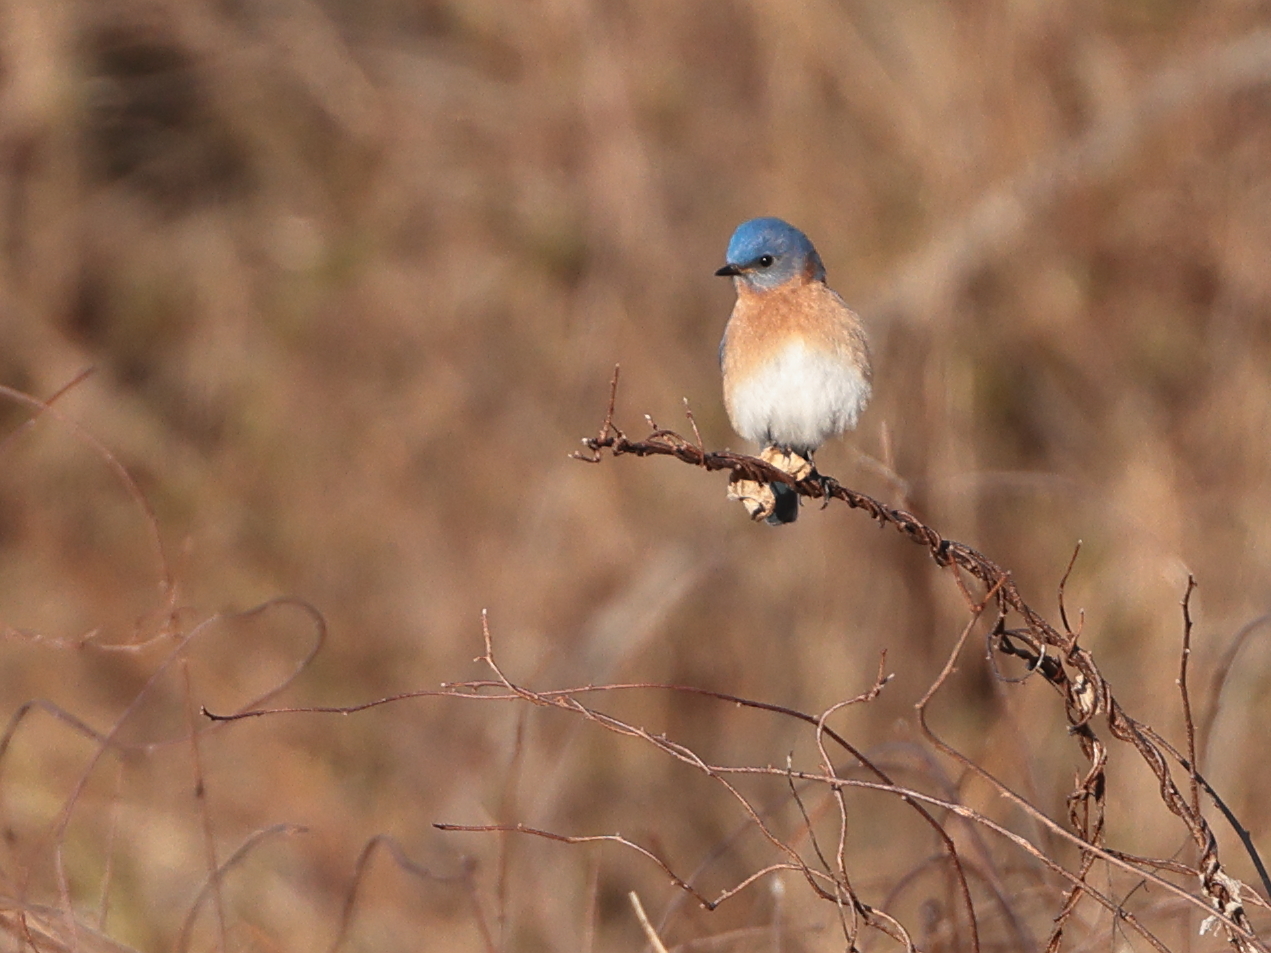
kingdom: Animalia
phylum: Chordata
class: Aves
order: Passeriformes
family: Turdidae
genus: Sialia
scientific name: Sialia sialis
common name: Eastern bluebird
